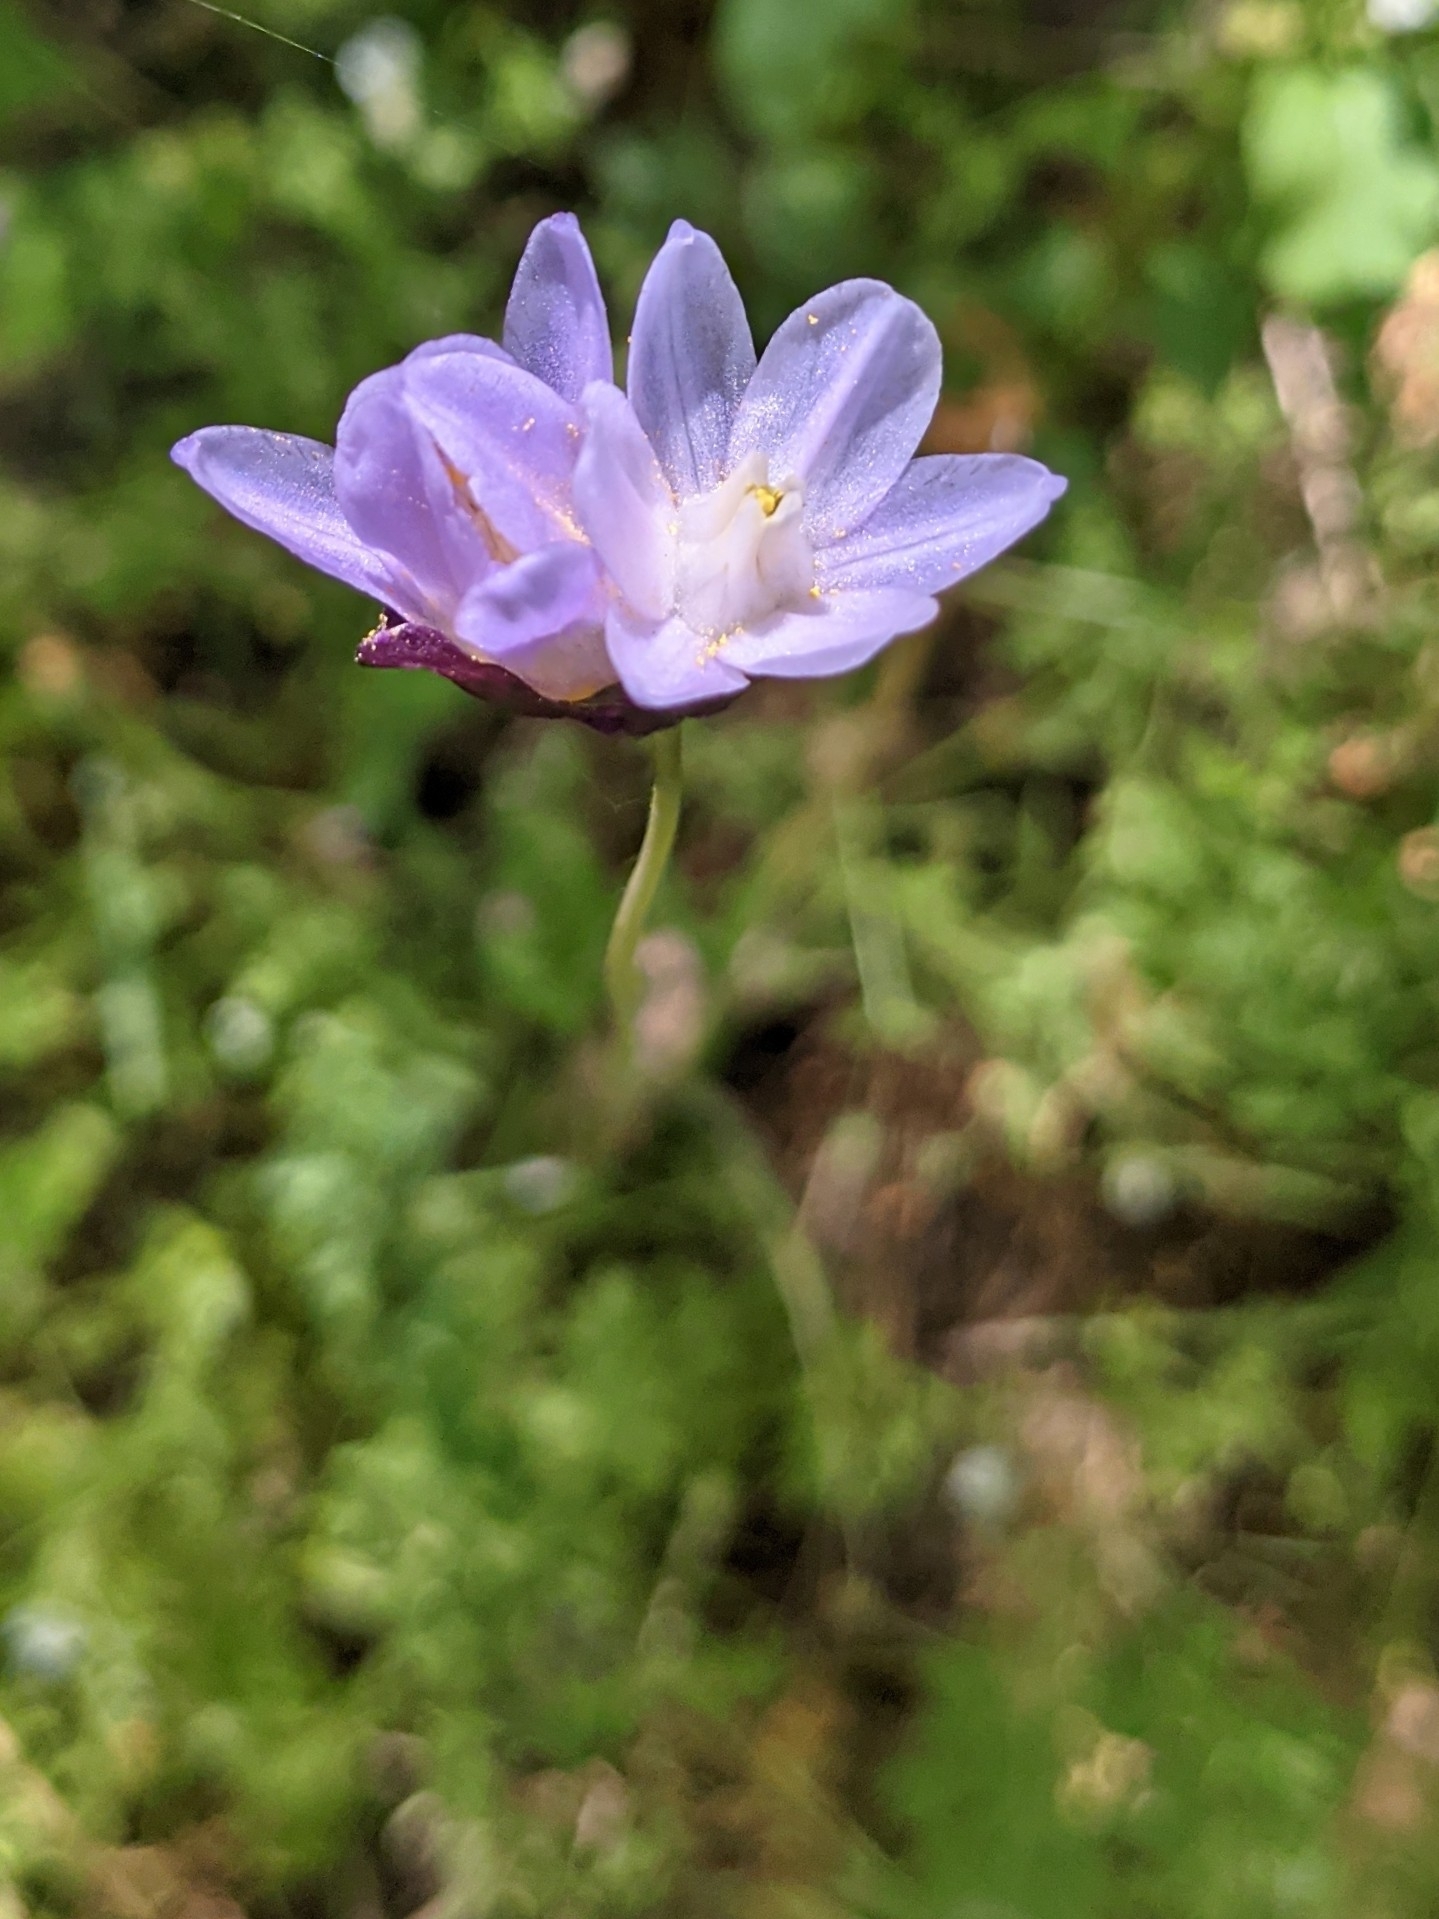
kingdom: Plantae
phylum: Tracheophyta
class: Liliopsida
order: Asparagales
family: Asparagaceae
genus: Dipterostemon
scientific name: Dipterostemon capitatus
